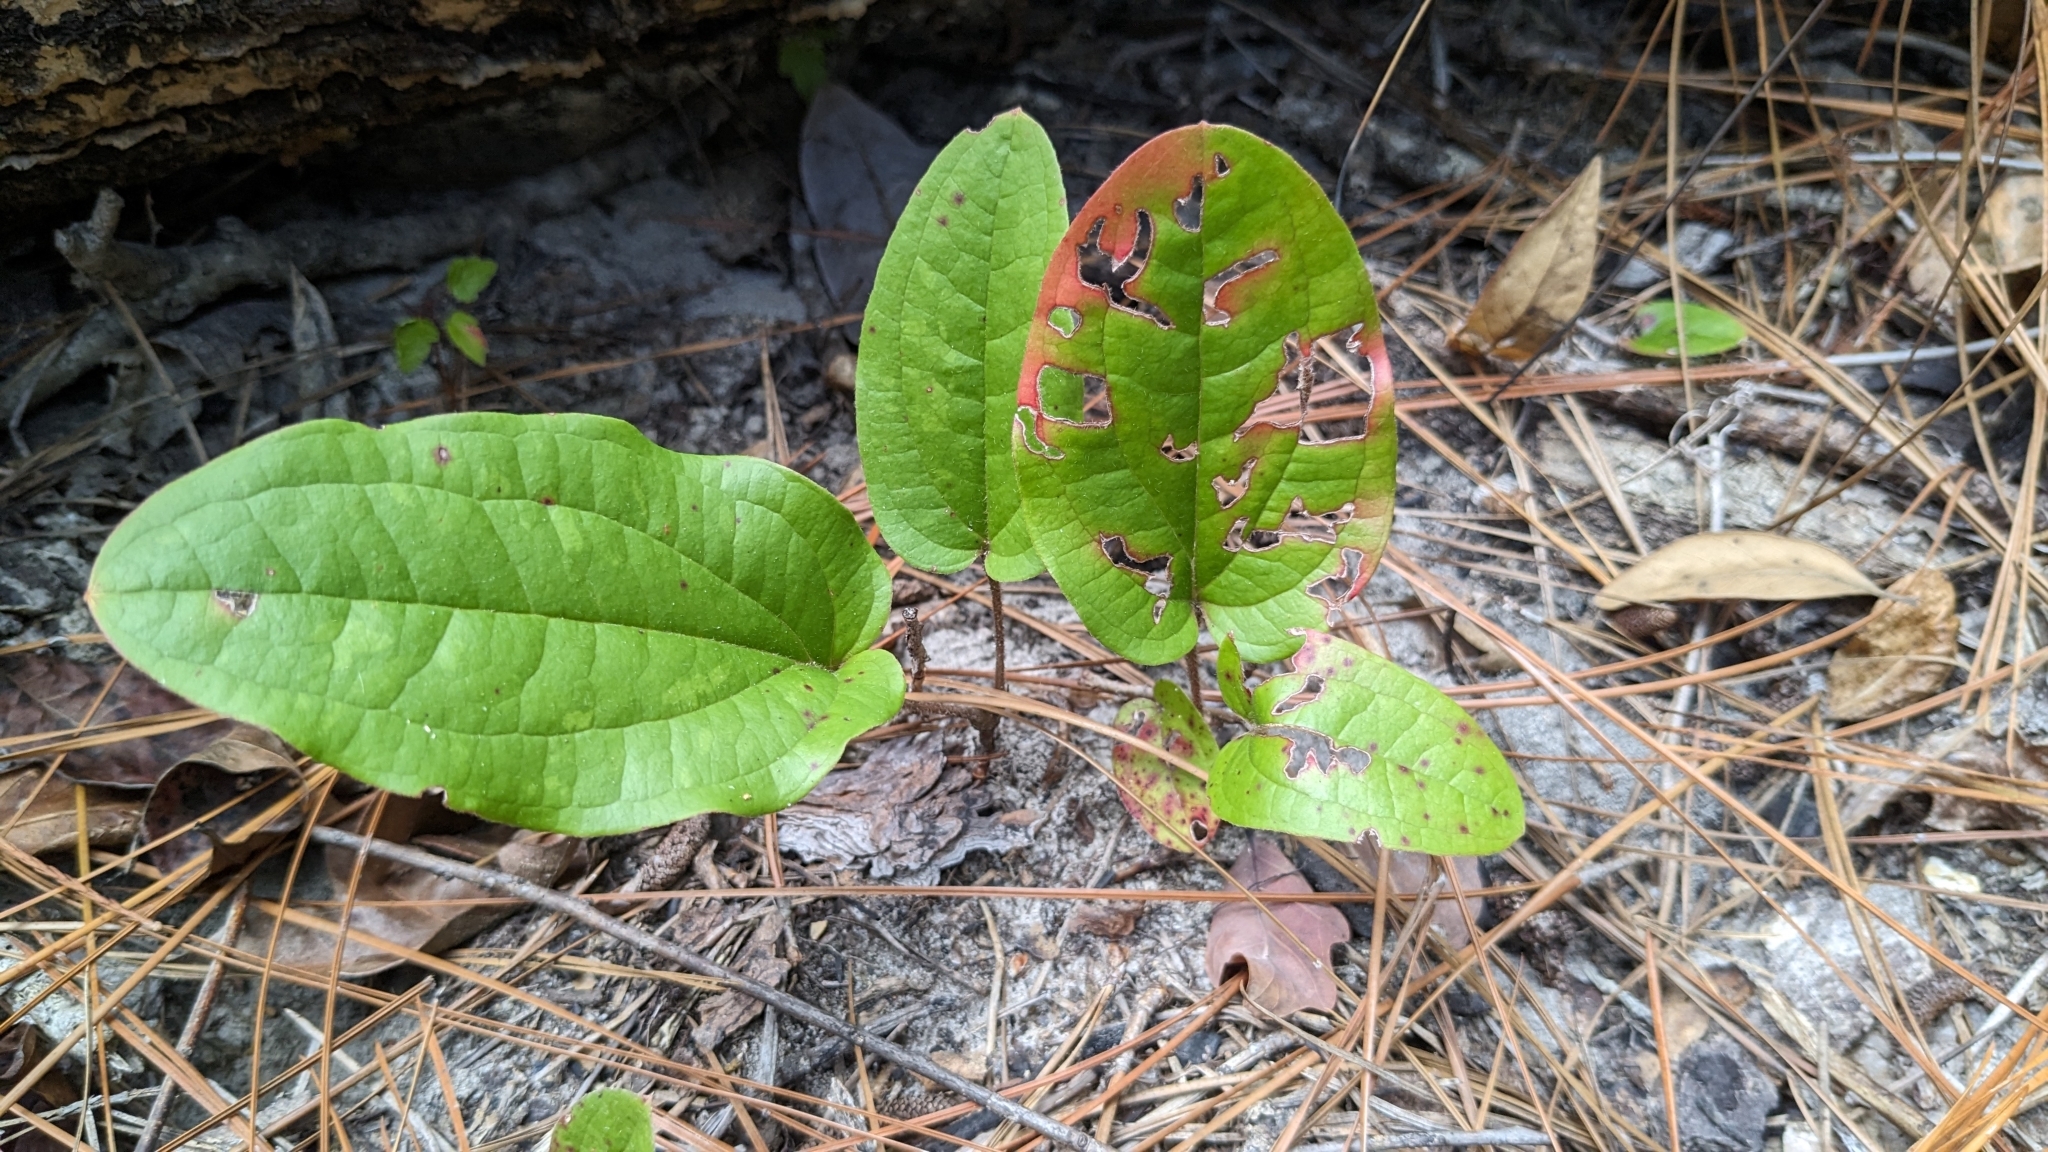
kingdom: Plantae
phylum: Tracheophyta
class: Liliopsida
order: Liliales
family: Smilacaceae
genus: Smilax
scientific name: Smilax pumila
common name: Sarsaparilla-vine
